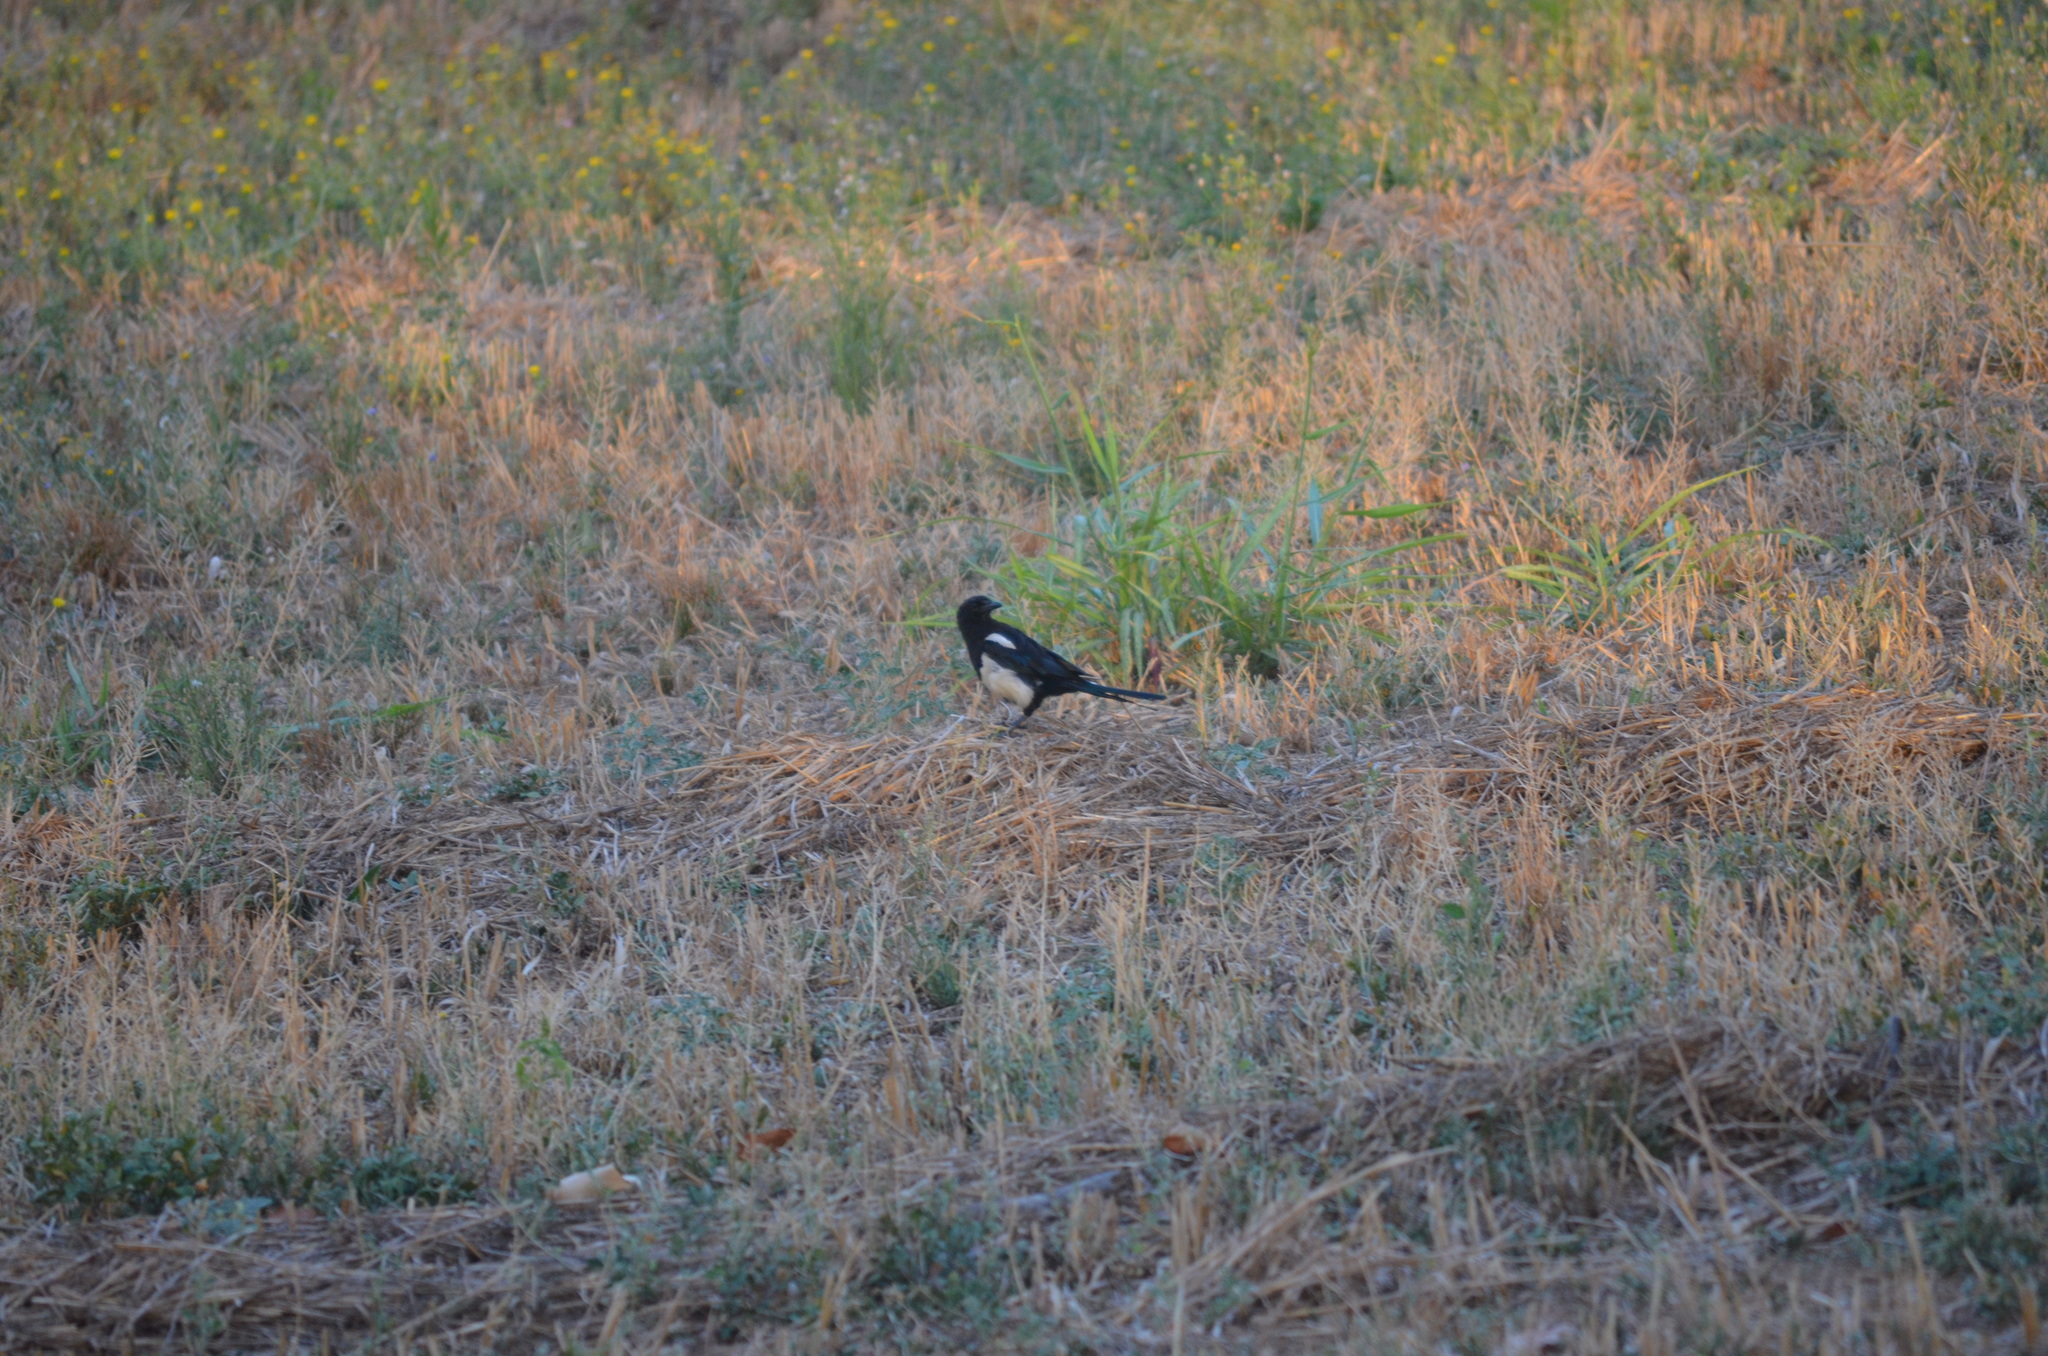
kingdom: Animalia
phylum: Chordata
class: Aves
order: Passeriformes
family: Corvidae
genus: Pica
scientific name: Pica pica
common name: Eurasian magpie
